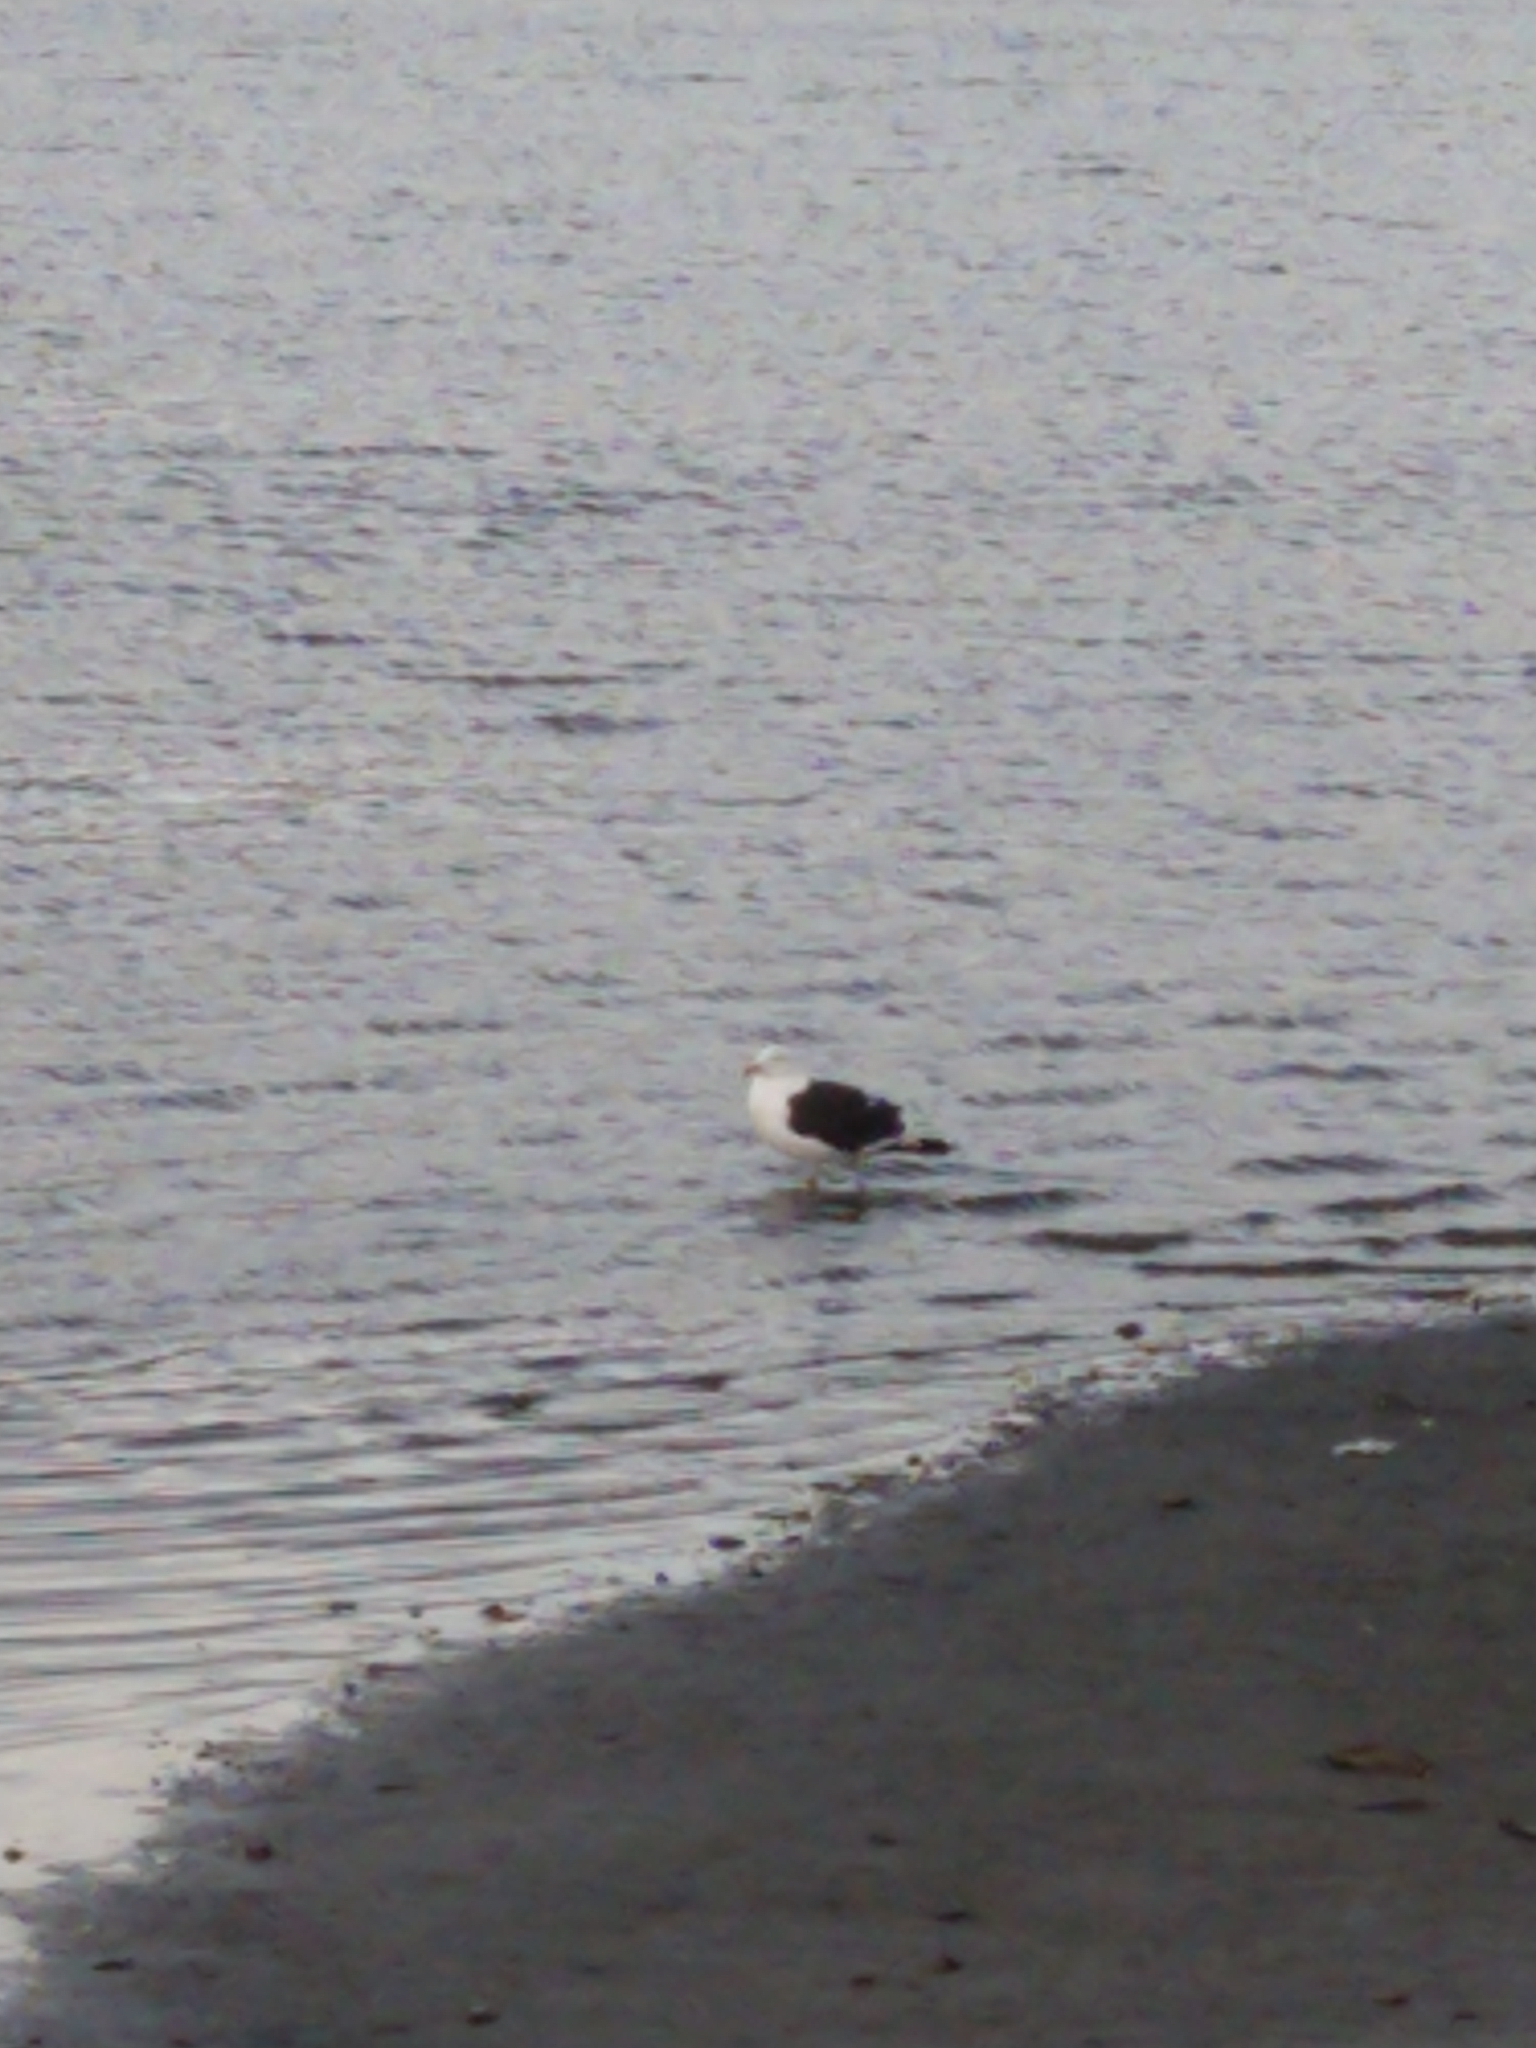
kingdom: Animalia
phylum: Chordata
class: Aves
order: Charadriiformes
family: Laridae
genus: Larus
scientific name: Larus dominicanus
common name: Kelp gull
